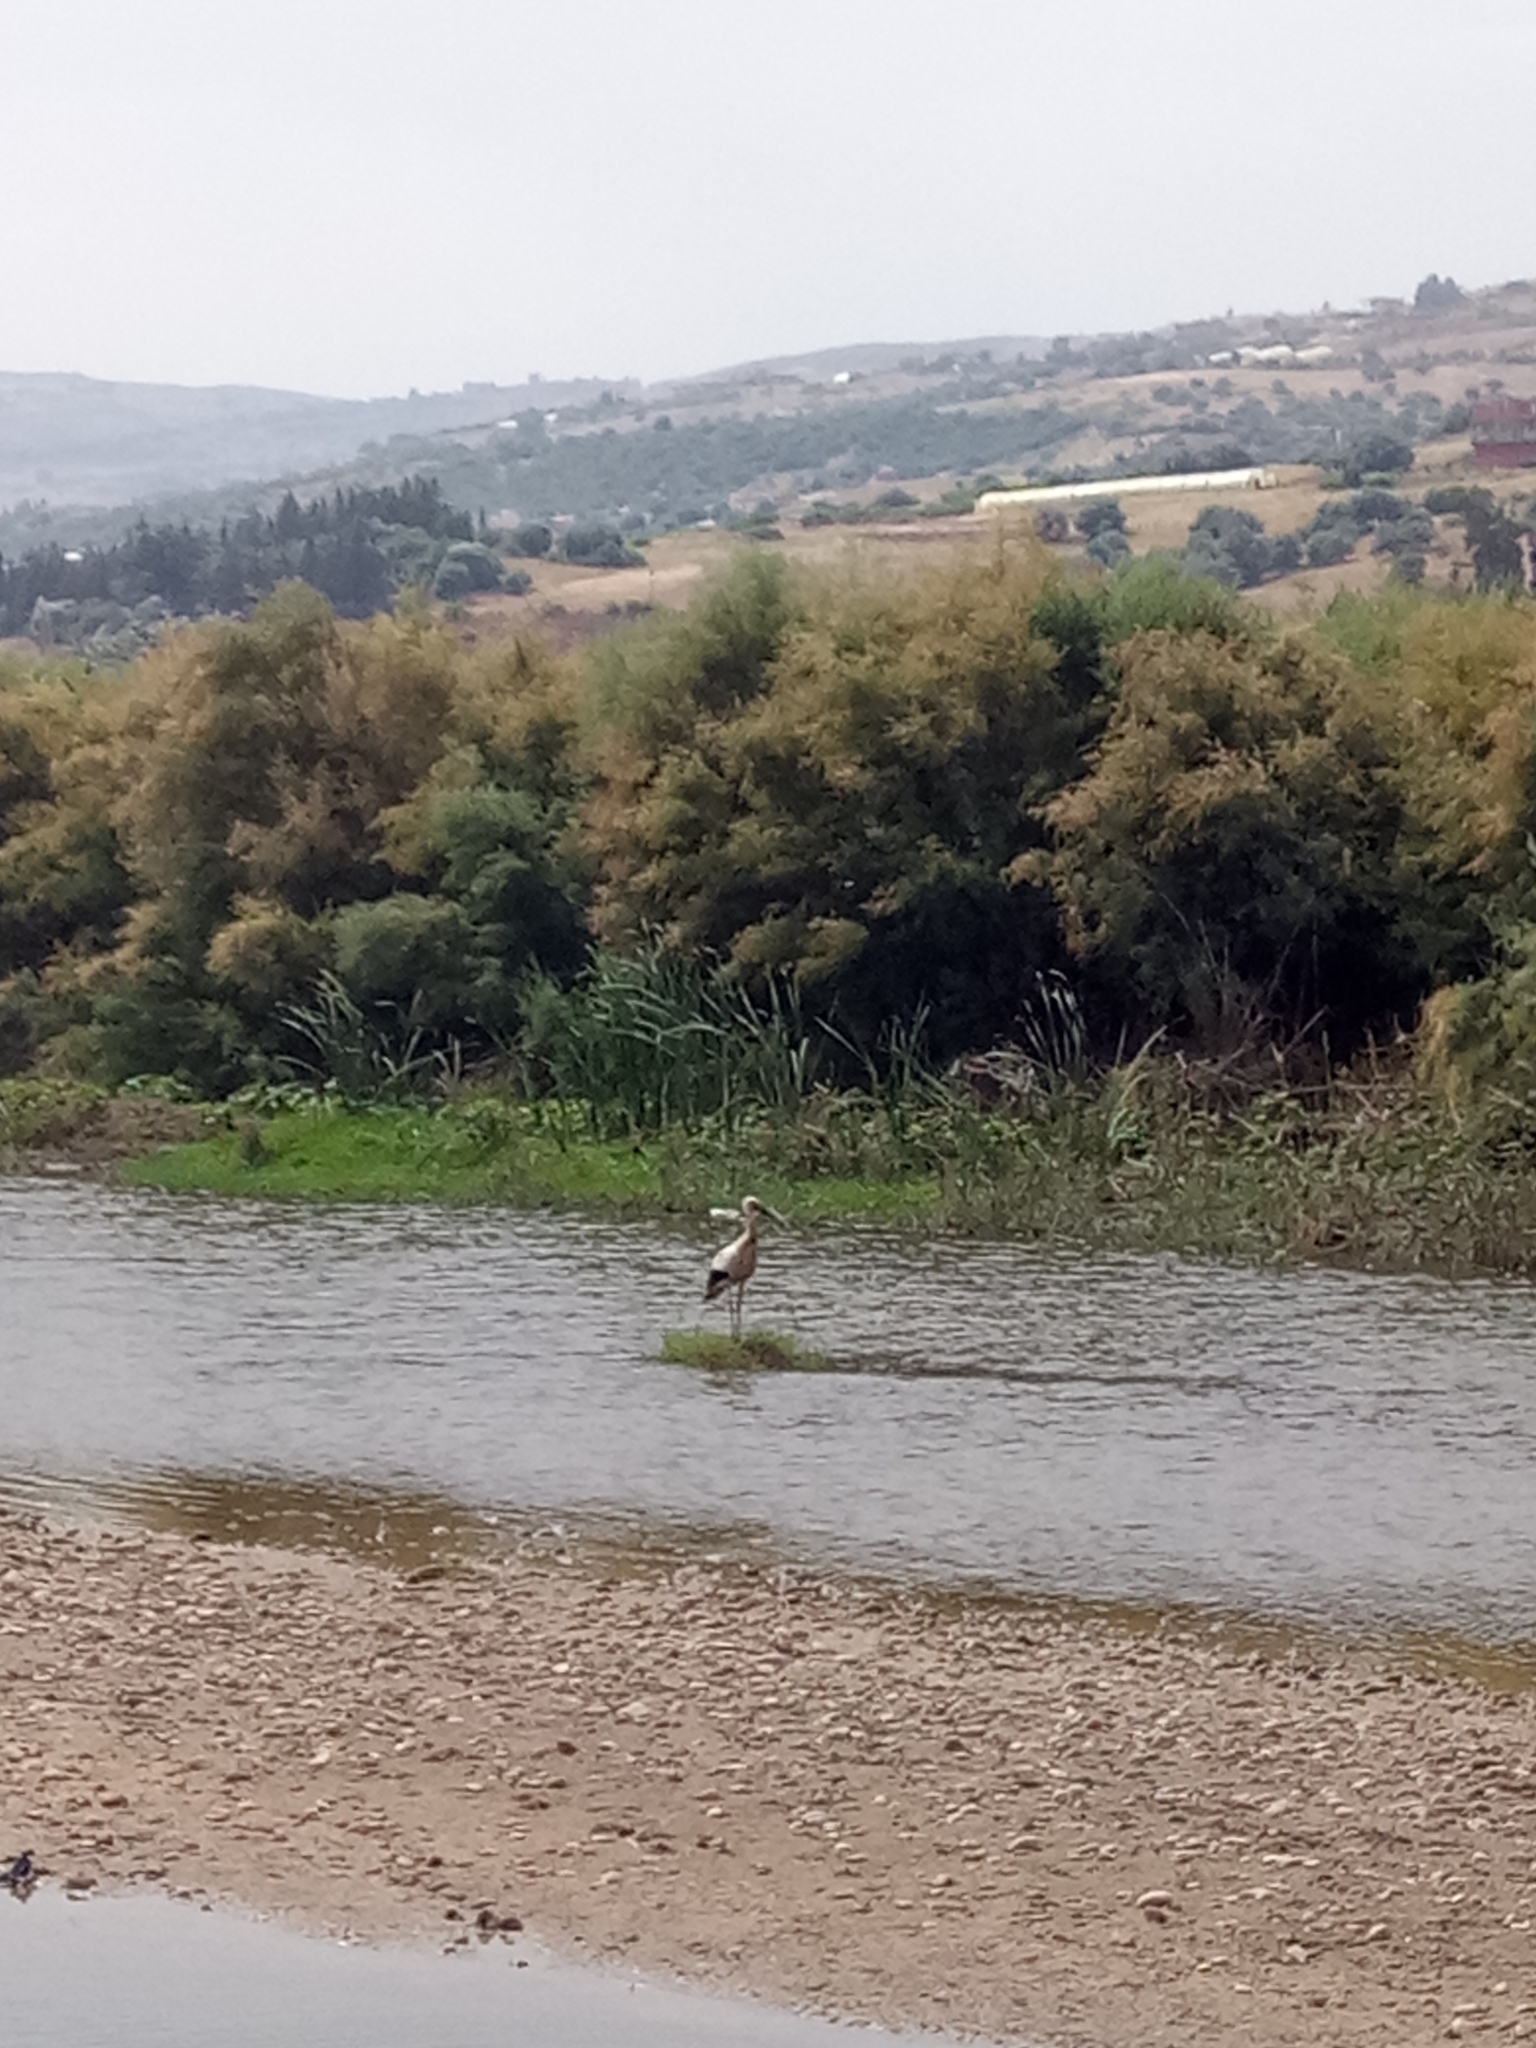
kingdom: Animalia
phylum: Chordata
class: Aves
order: Ciconiiformes
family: Ciconiidae
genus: Ciconia
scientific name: Ciconia ciconia
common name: White stork
